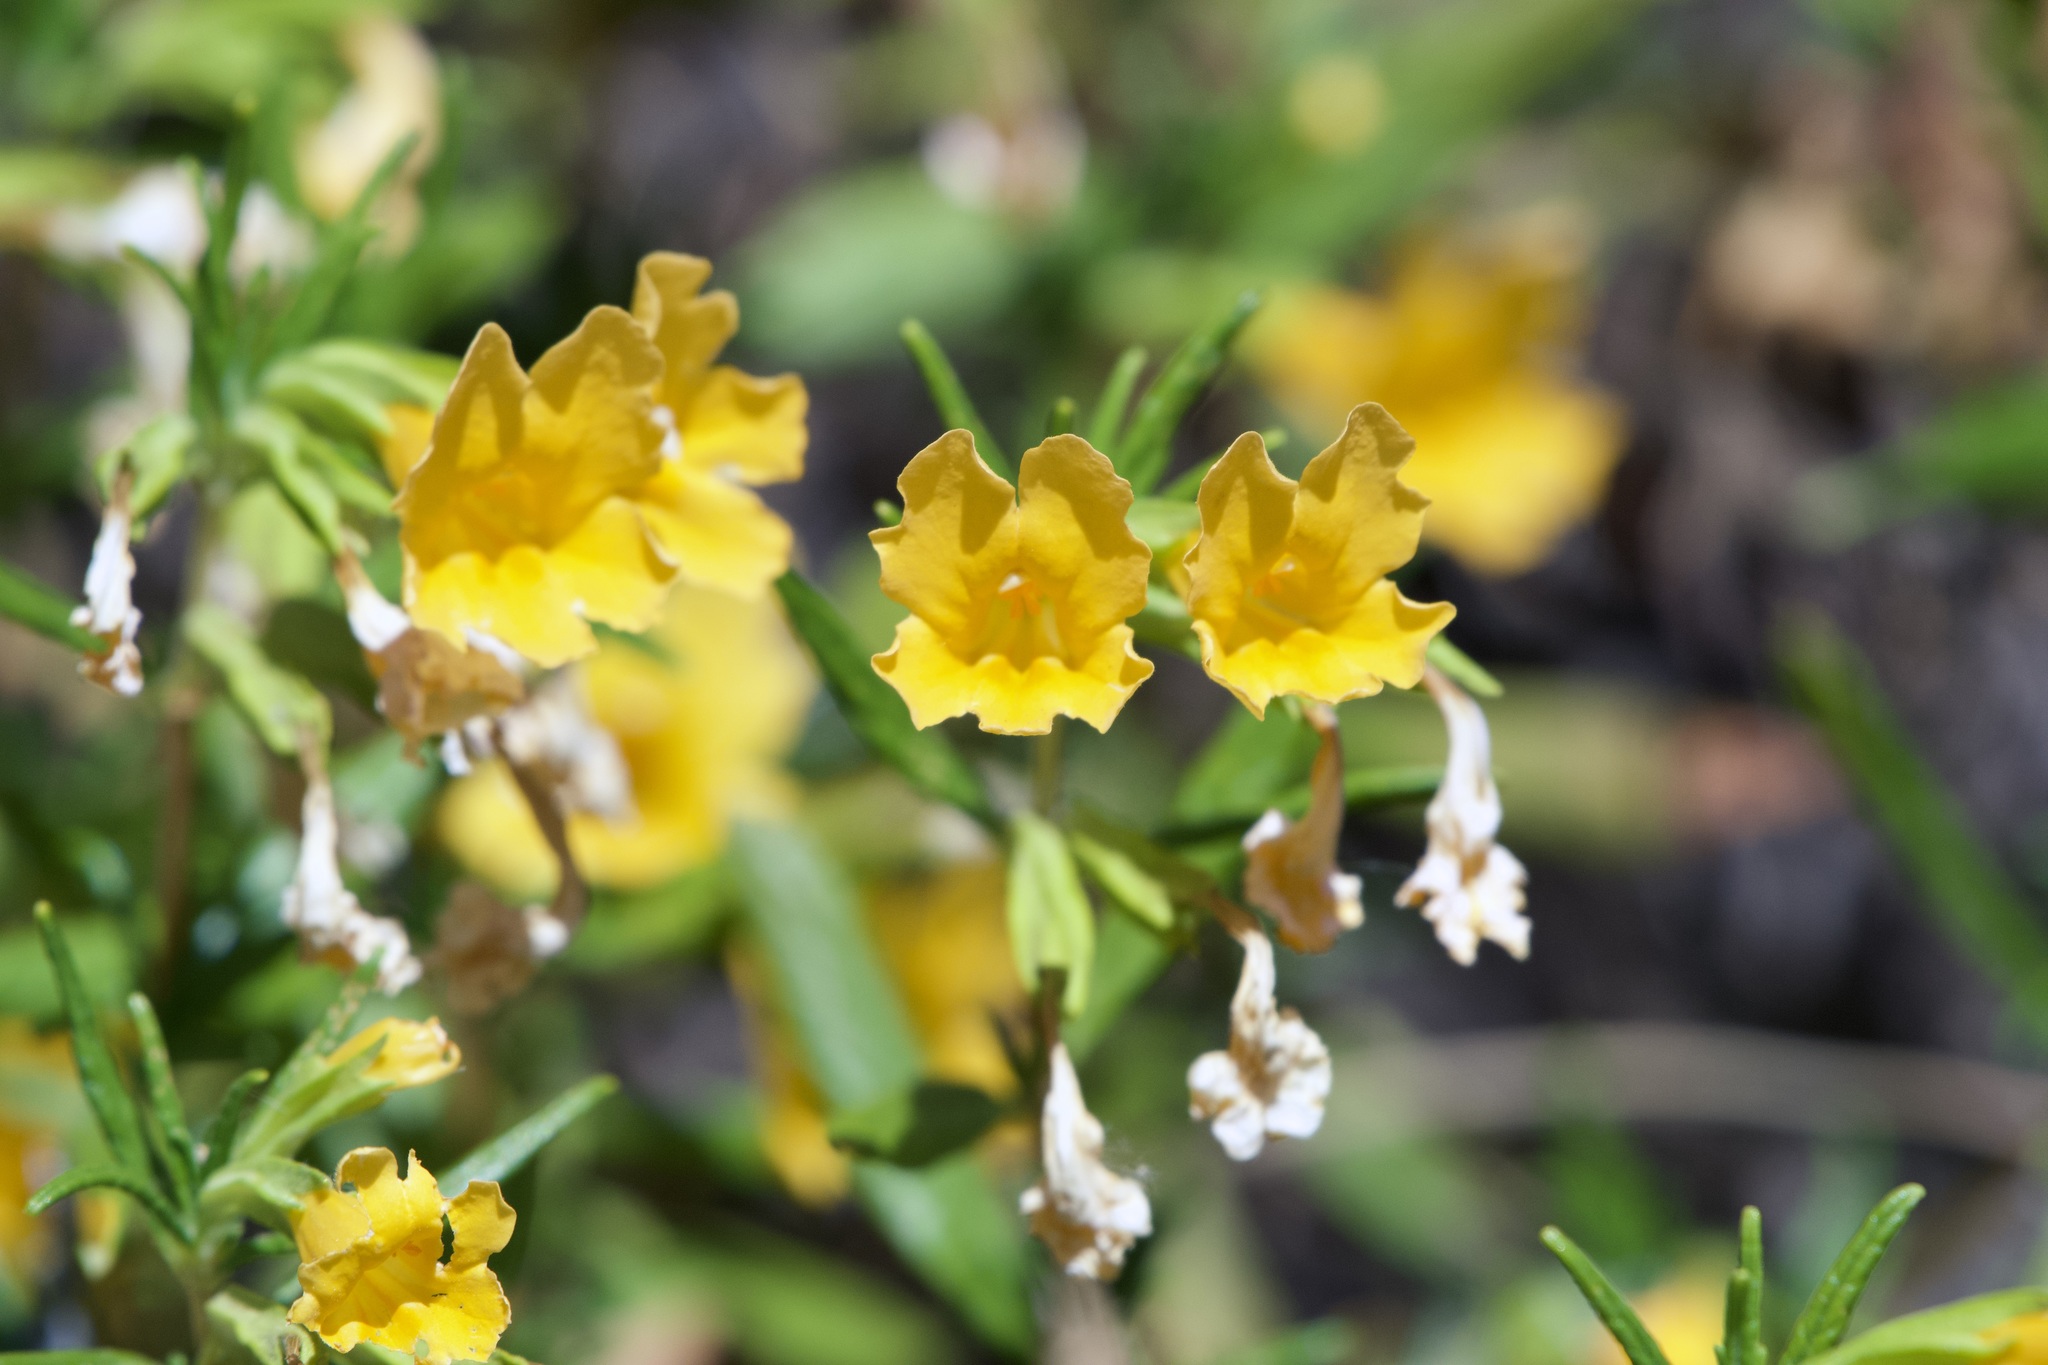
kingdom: Plantae
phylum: Tracheophyta
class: Magnoliopsida
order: Lamiales
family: Phrymaceae
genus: Diplacus
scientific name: Diplacus aurantiacus
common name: Bush monkey-flower
